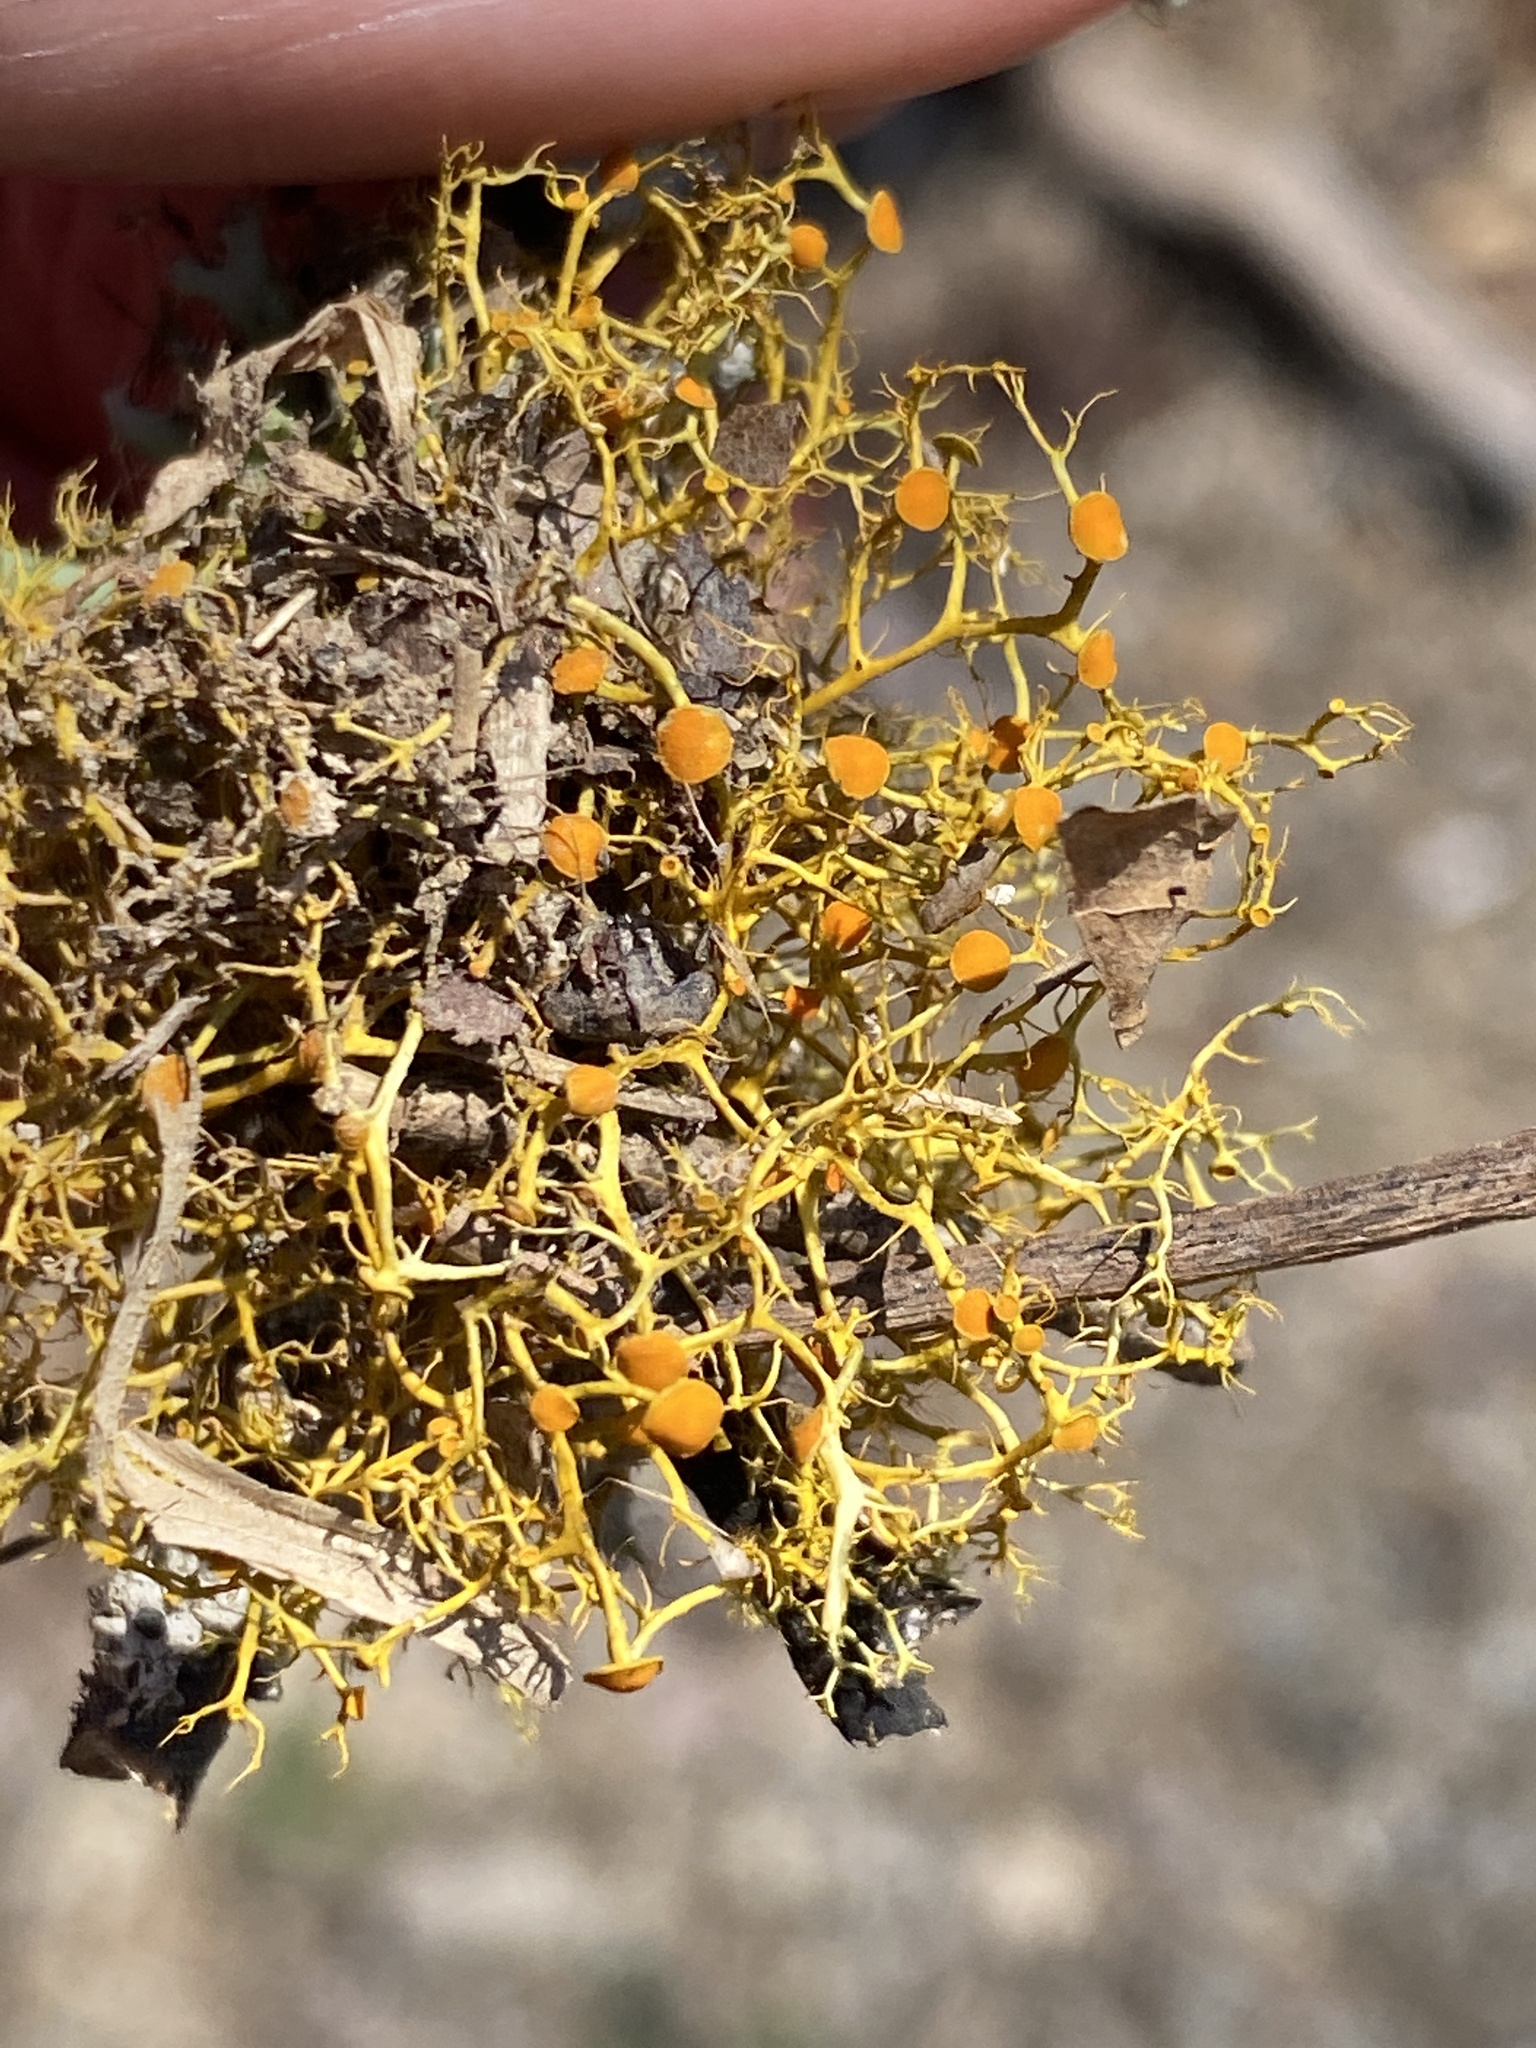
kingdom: Fungi
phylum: Ascomycota
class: Lecanoromycetes
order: Teloschistales
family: Teloschistaceae
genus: Teloschistes
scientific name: Teloschistes exilis
